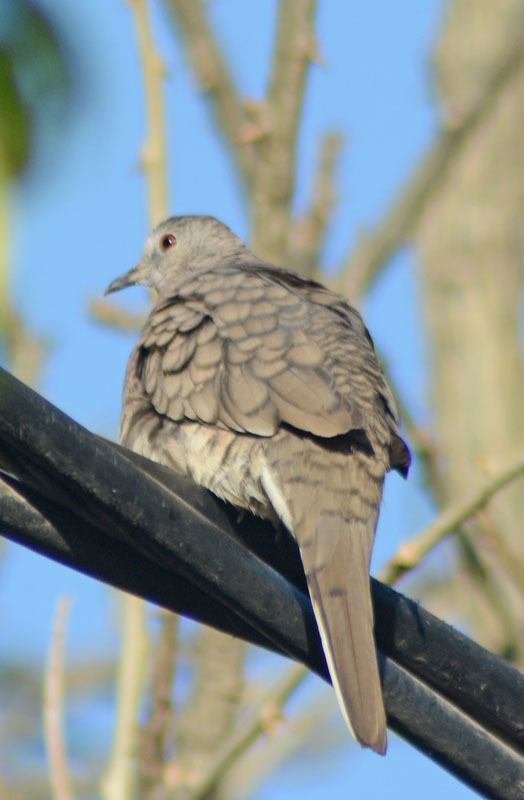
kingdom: Animalia
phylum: Chordata
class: Aves
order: Columbiformes
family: Columbidae
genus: Columbina
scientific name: Columbina inca
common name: Inca dove
